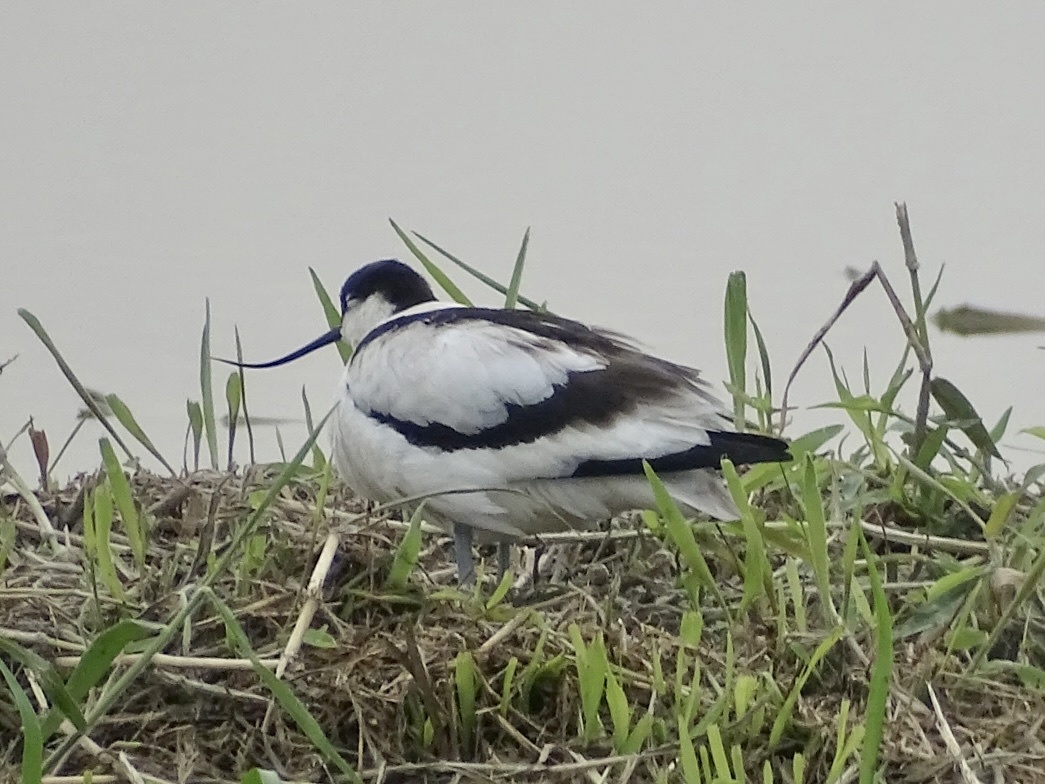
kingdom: Animalia
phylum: Chordata
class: Aves
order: Charadriiformes
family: Recurvirostridae
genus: Recurvirostra
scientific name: Recurvirostra avosetta
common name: Pied avocet
